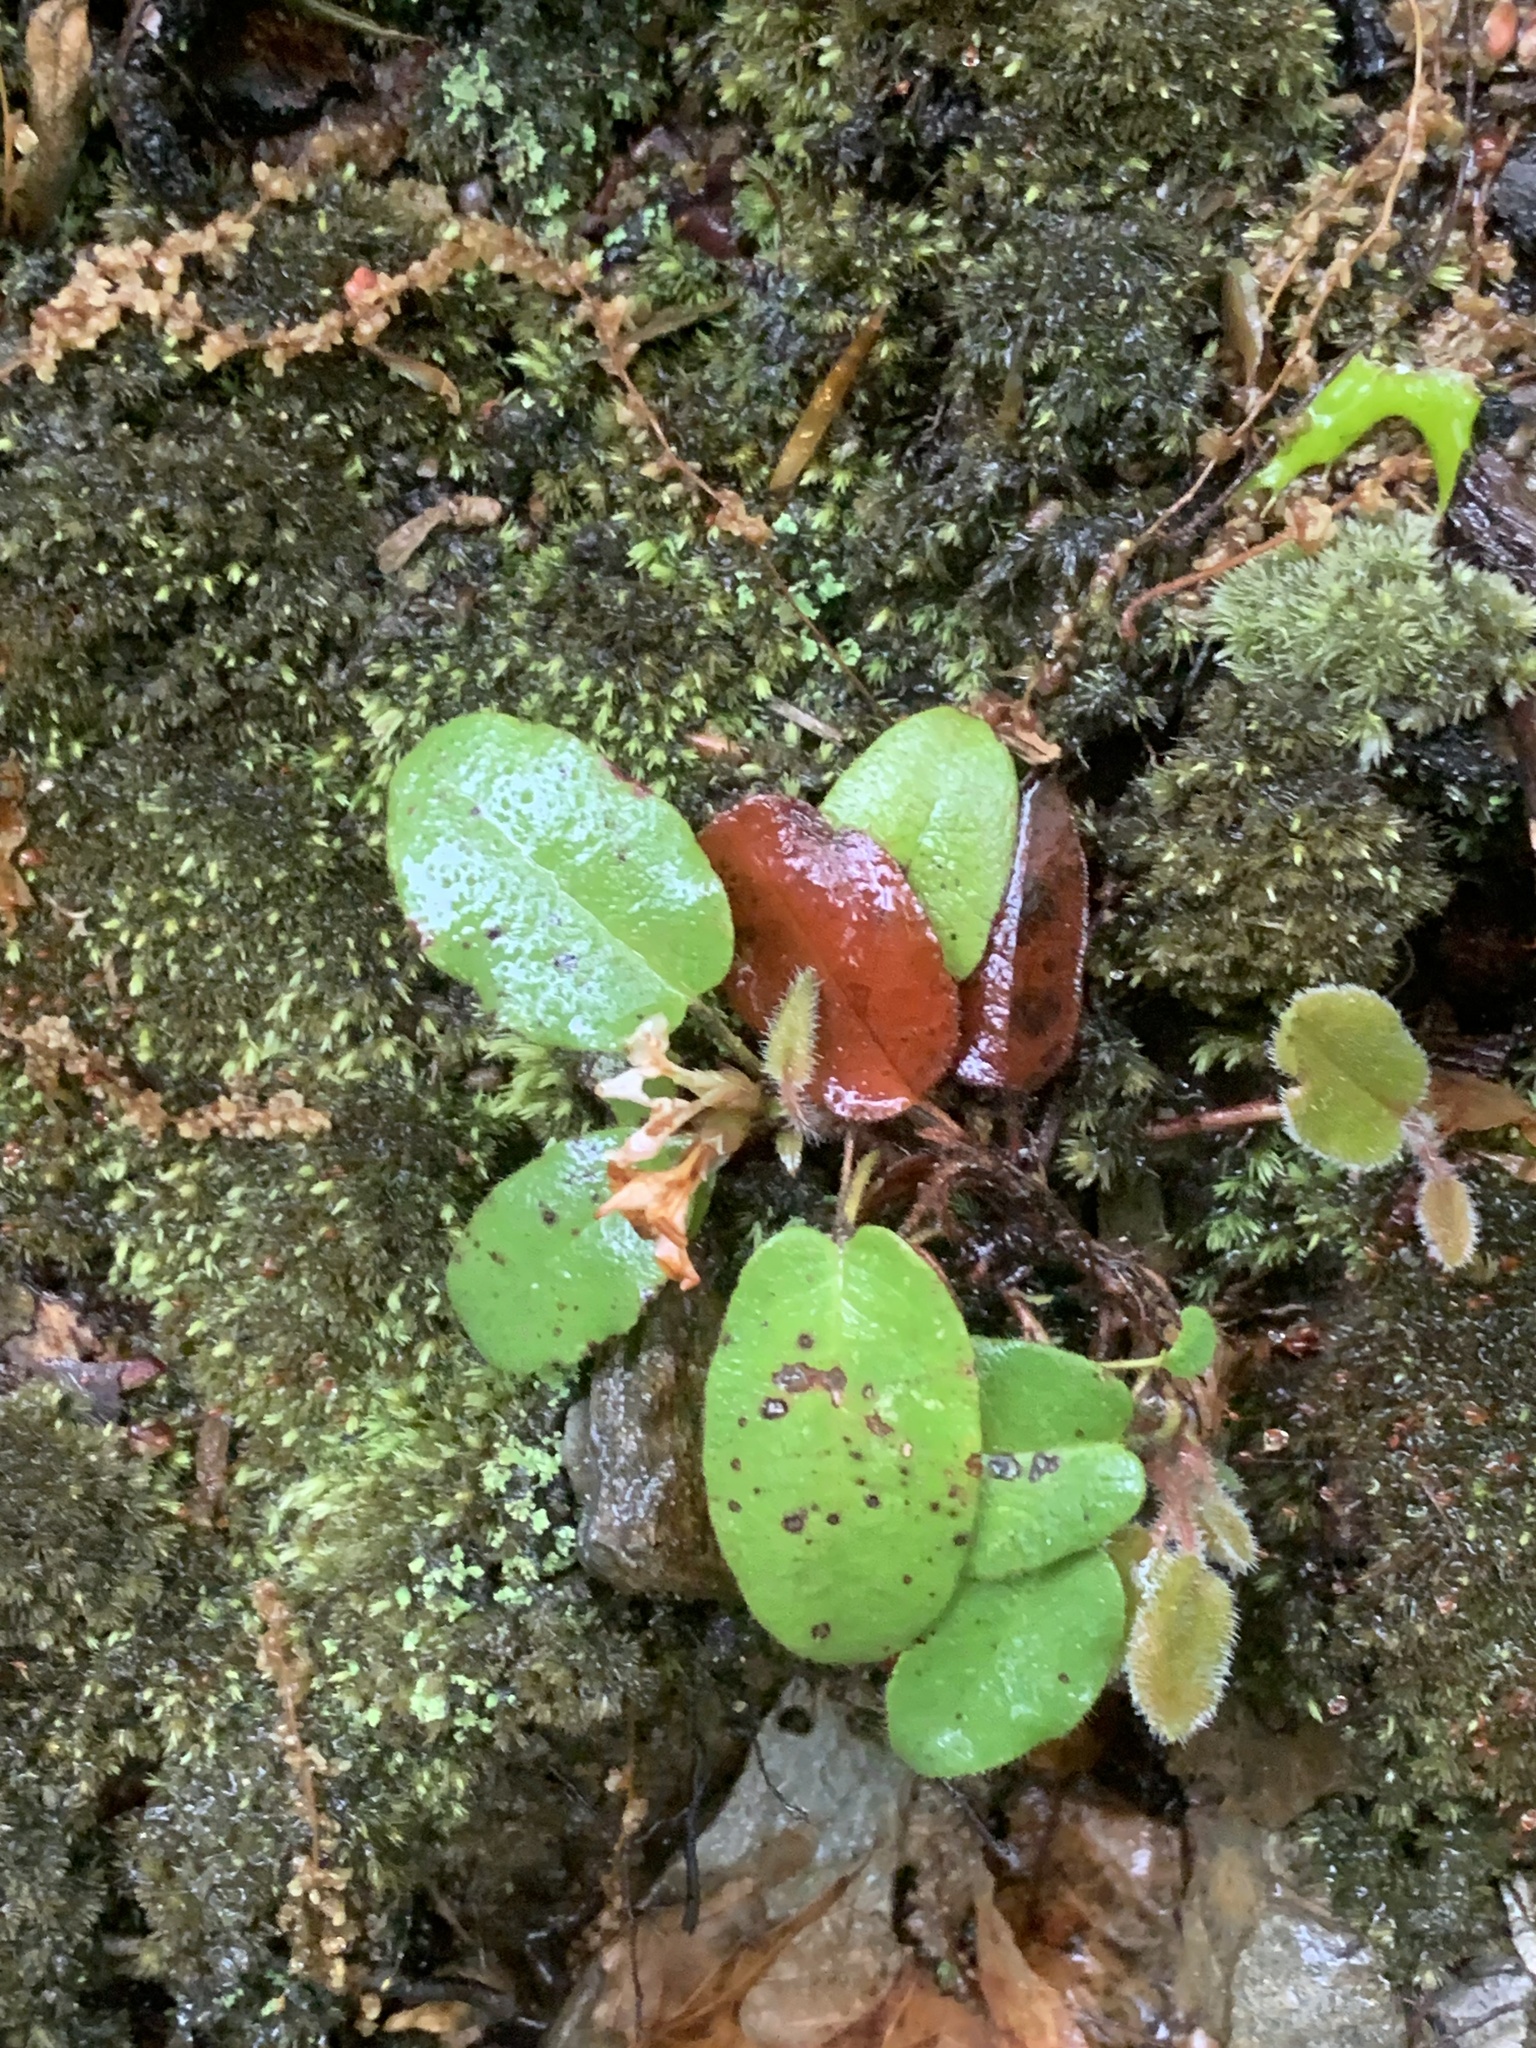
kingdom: Plantae
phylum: Tracheophyta
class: Magnoliopsida
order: Ericales
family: Ericaceae
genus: Epigaea
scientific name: Epigaea repens
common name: Gravelroot
